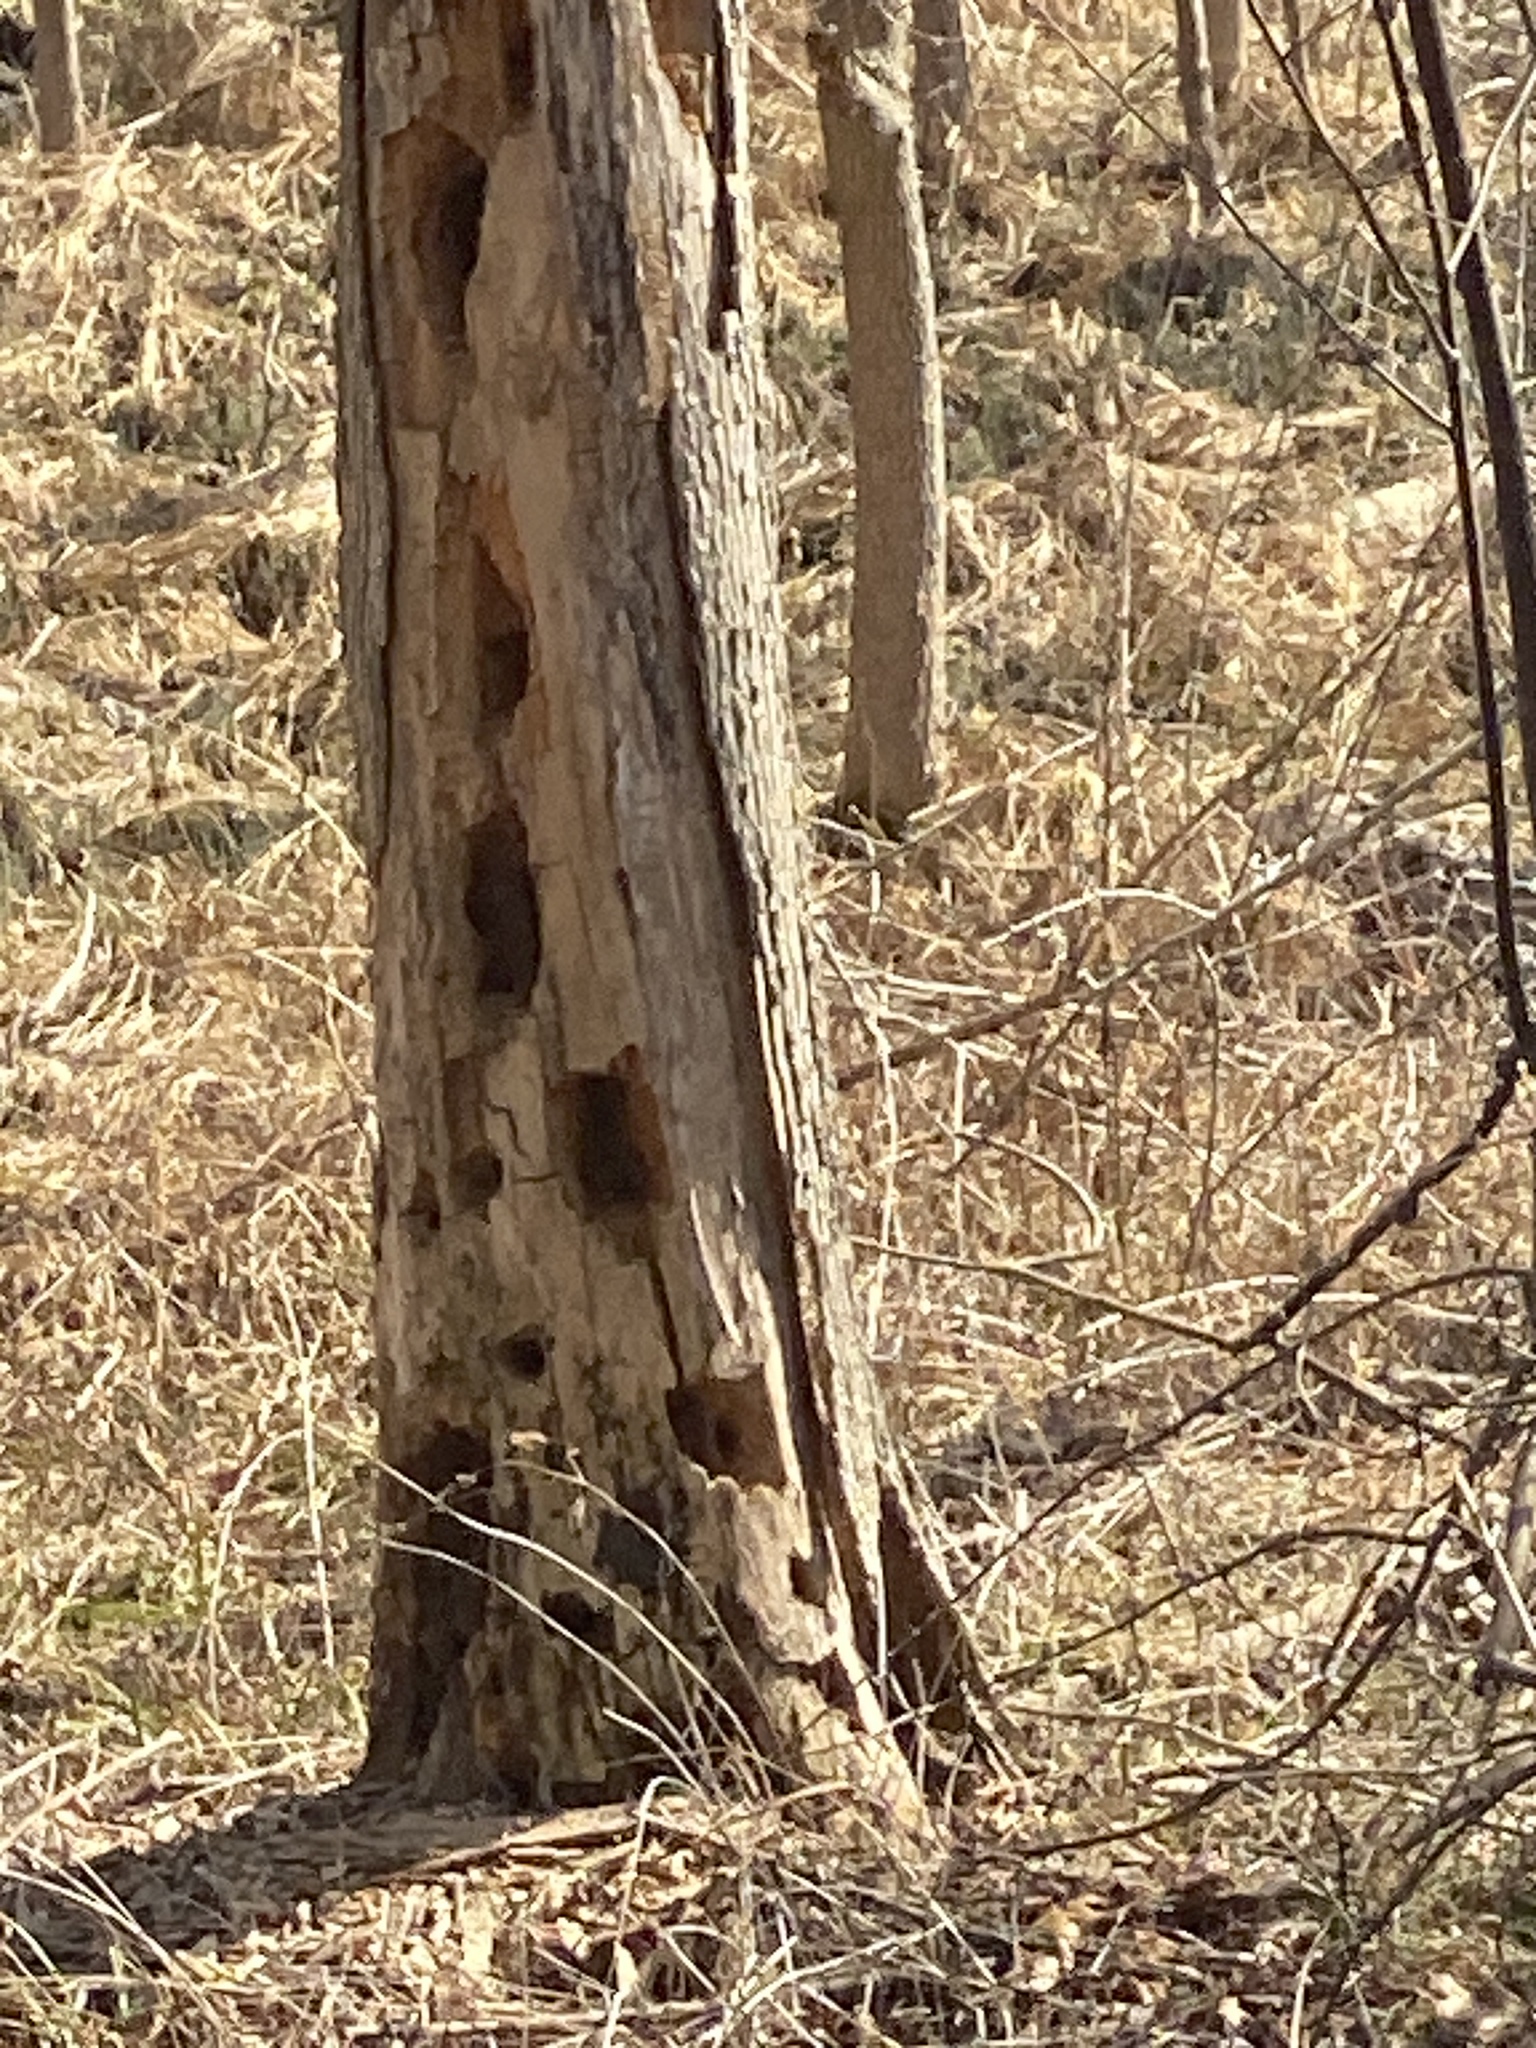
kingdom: Animalia
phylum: Chordata
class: Aves
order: Piciformes
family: Picidae
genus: Dryocopus
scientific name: Dryocopus pileatus
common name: Pileated woodpecker
